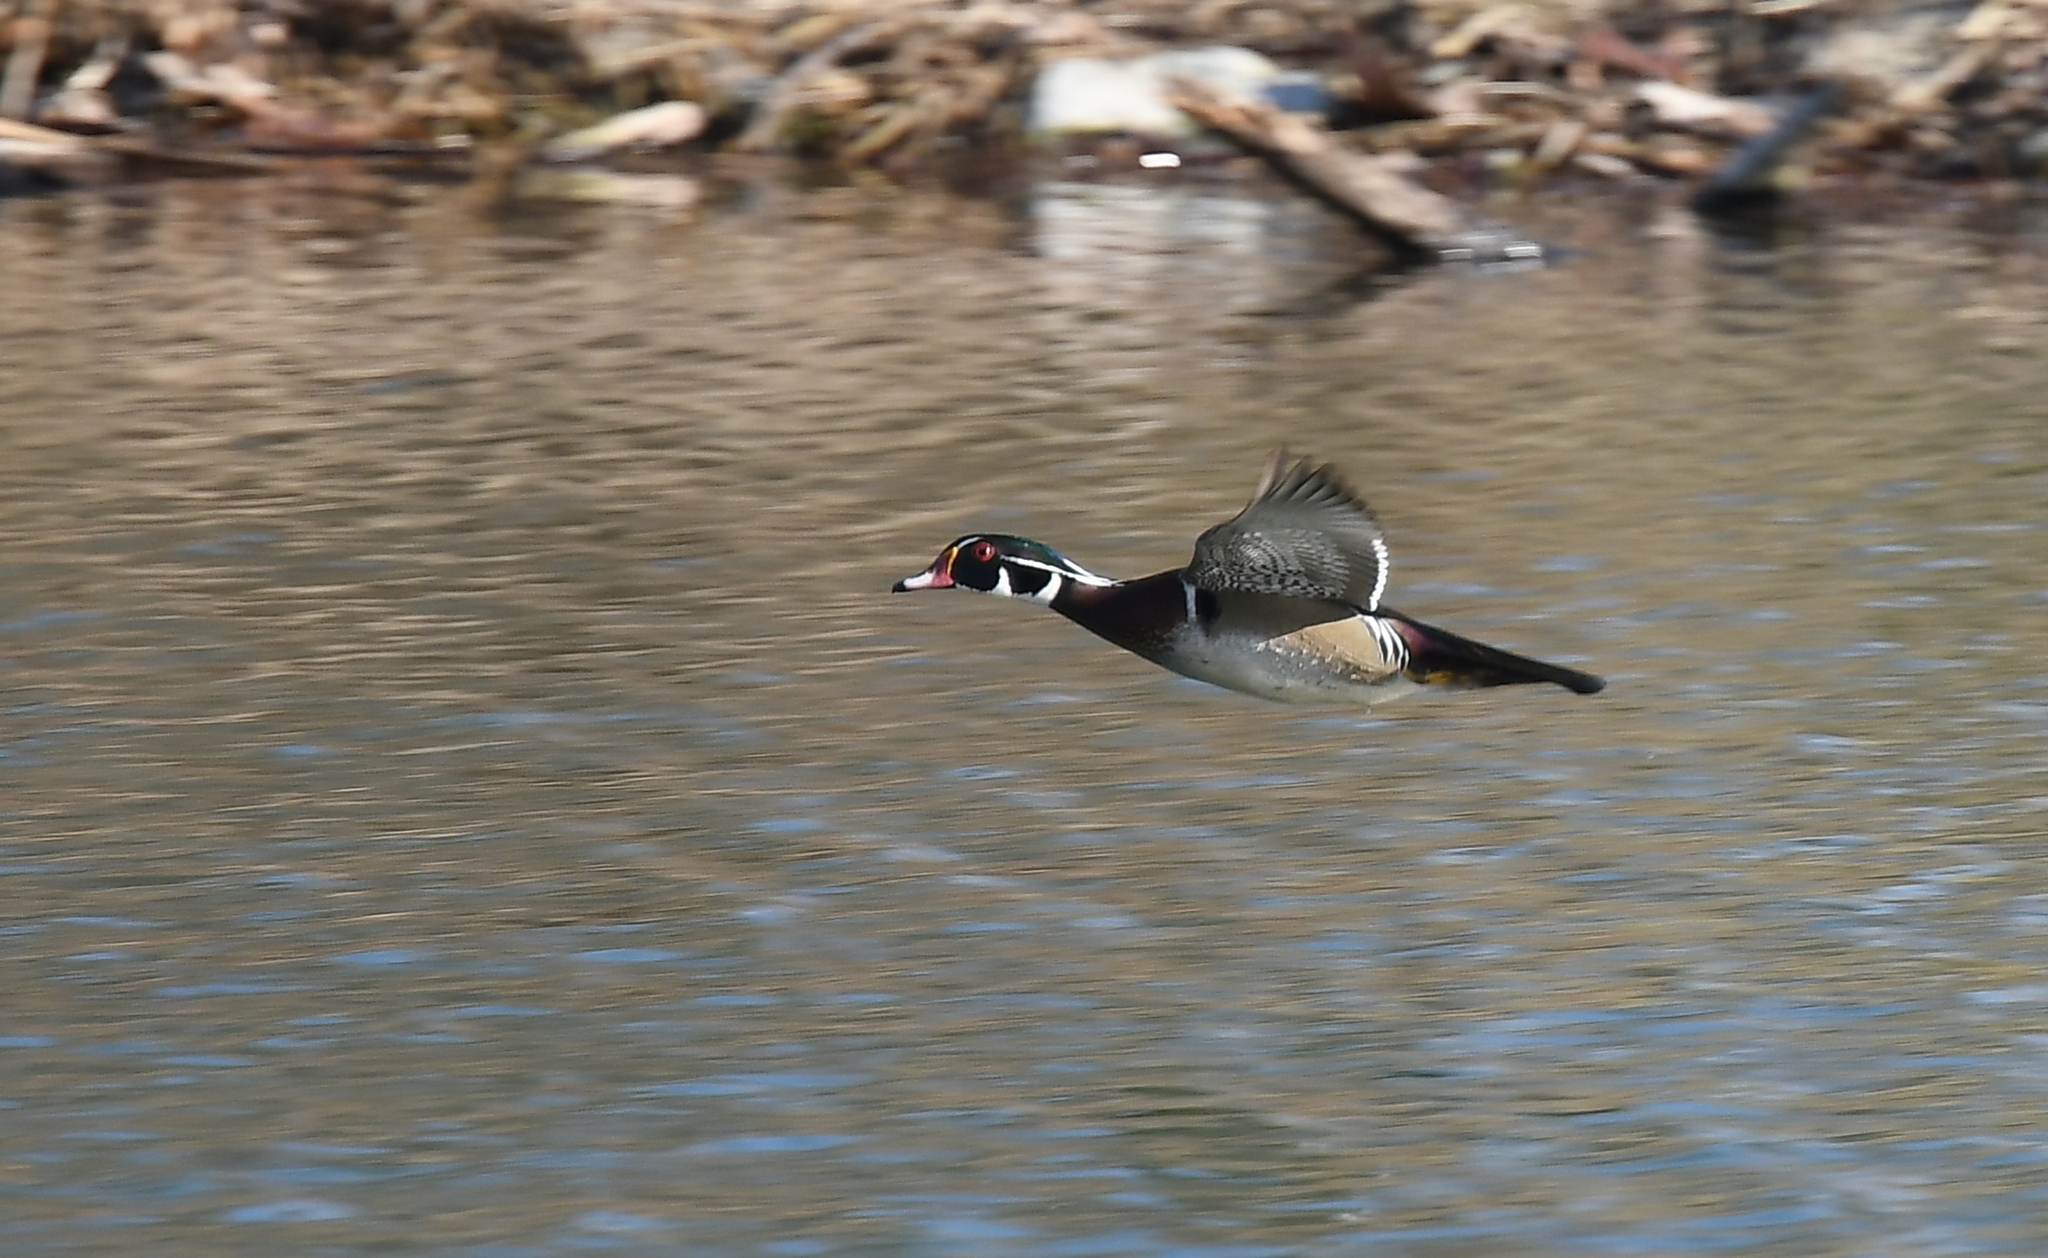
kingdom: Animalia
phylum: Chordata
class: Aves
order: Anseriformes
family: Anatidae
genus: Aix
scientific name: Aix sponsa
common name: Wood duck
